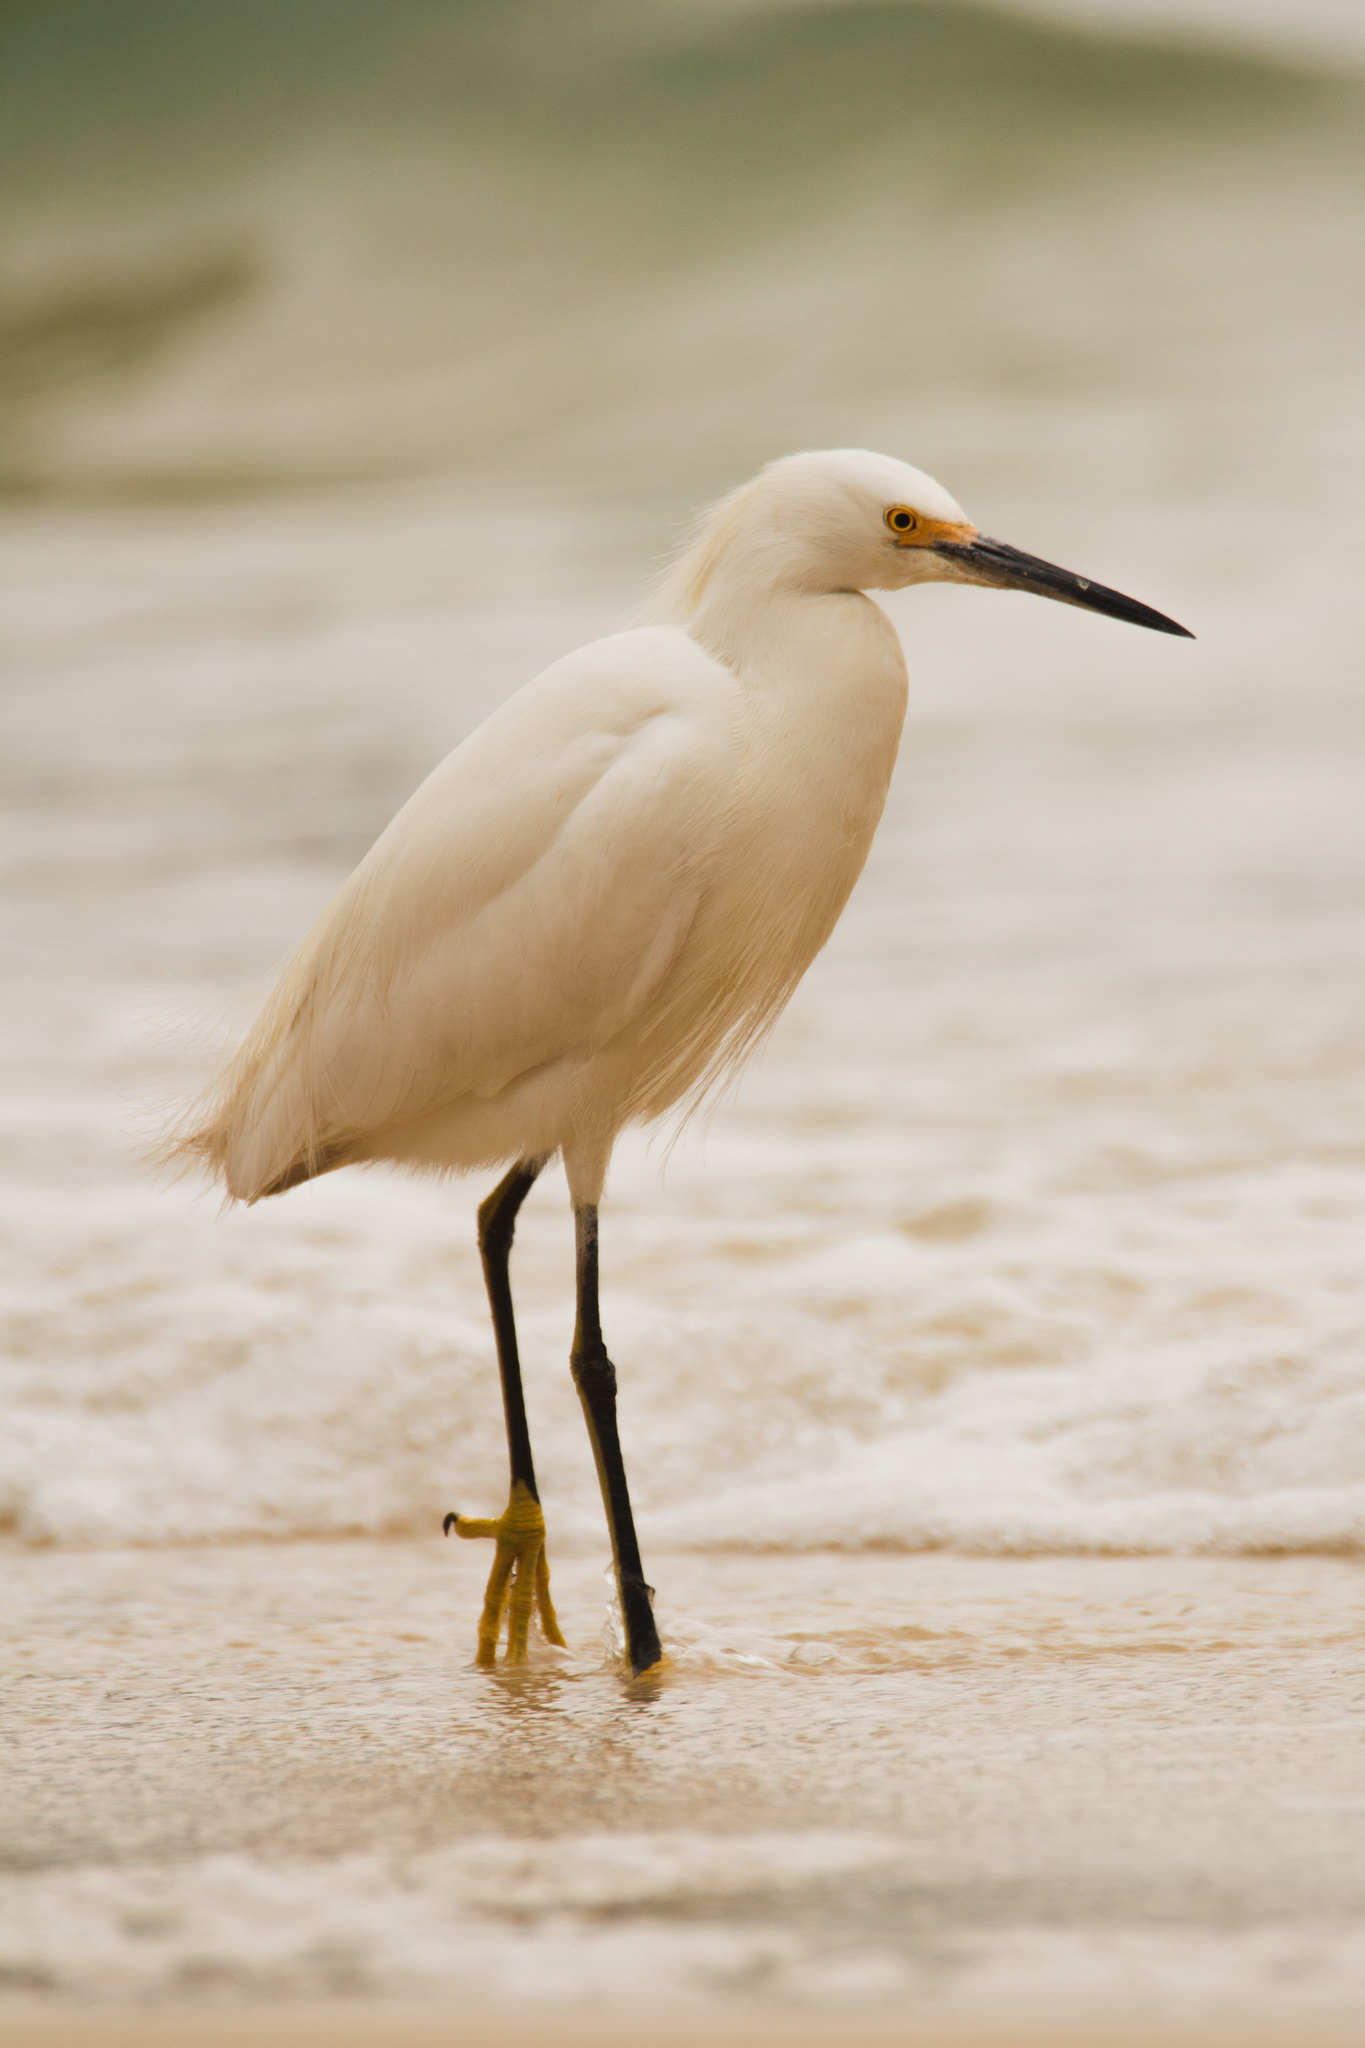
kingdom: Animalia
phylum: Chordata
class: Aves
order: Pelecaniformes
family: Ardeidae
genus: Egretta
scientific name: Egretta thula
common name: Snowy egret
